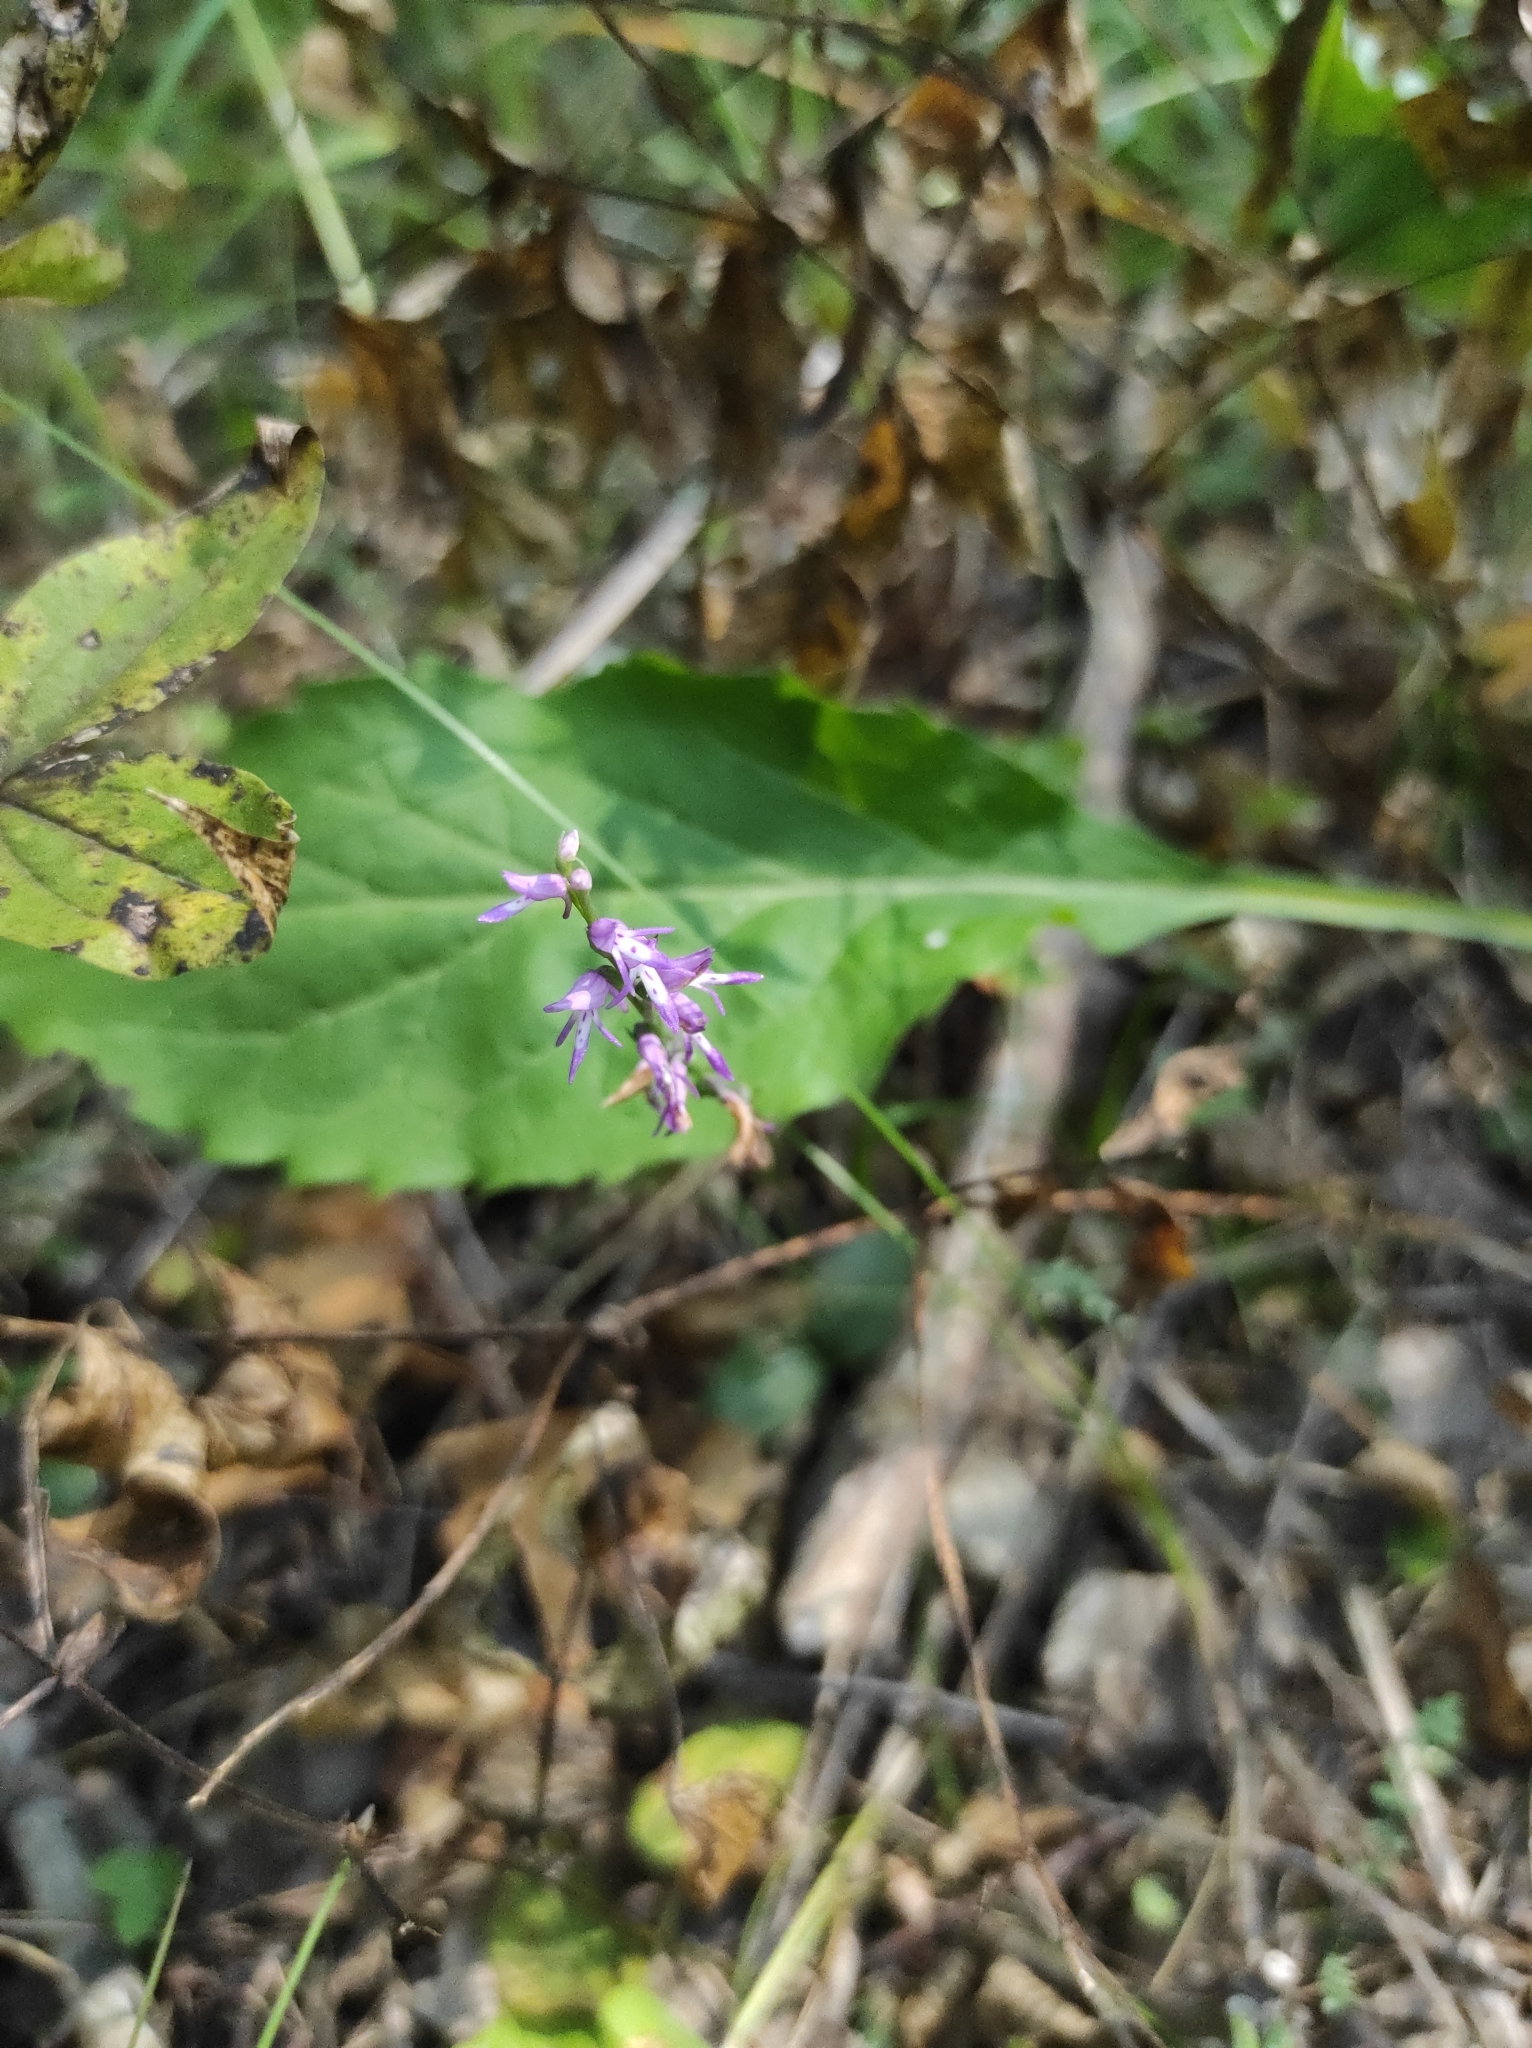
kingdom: Plantae
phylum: Tracheophyta
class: Liliopsida
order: Asparagales
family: Orchidaceae
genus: Hemipilia
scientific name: Hemipilia cucullata
